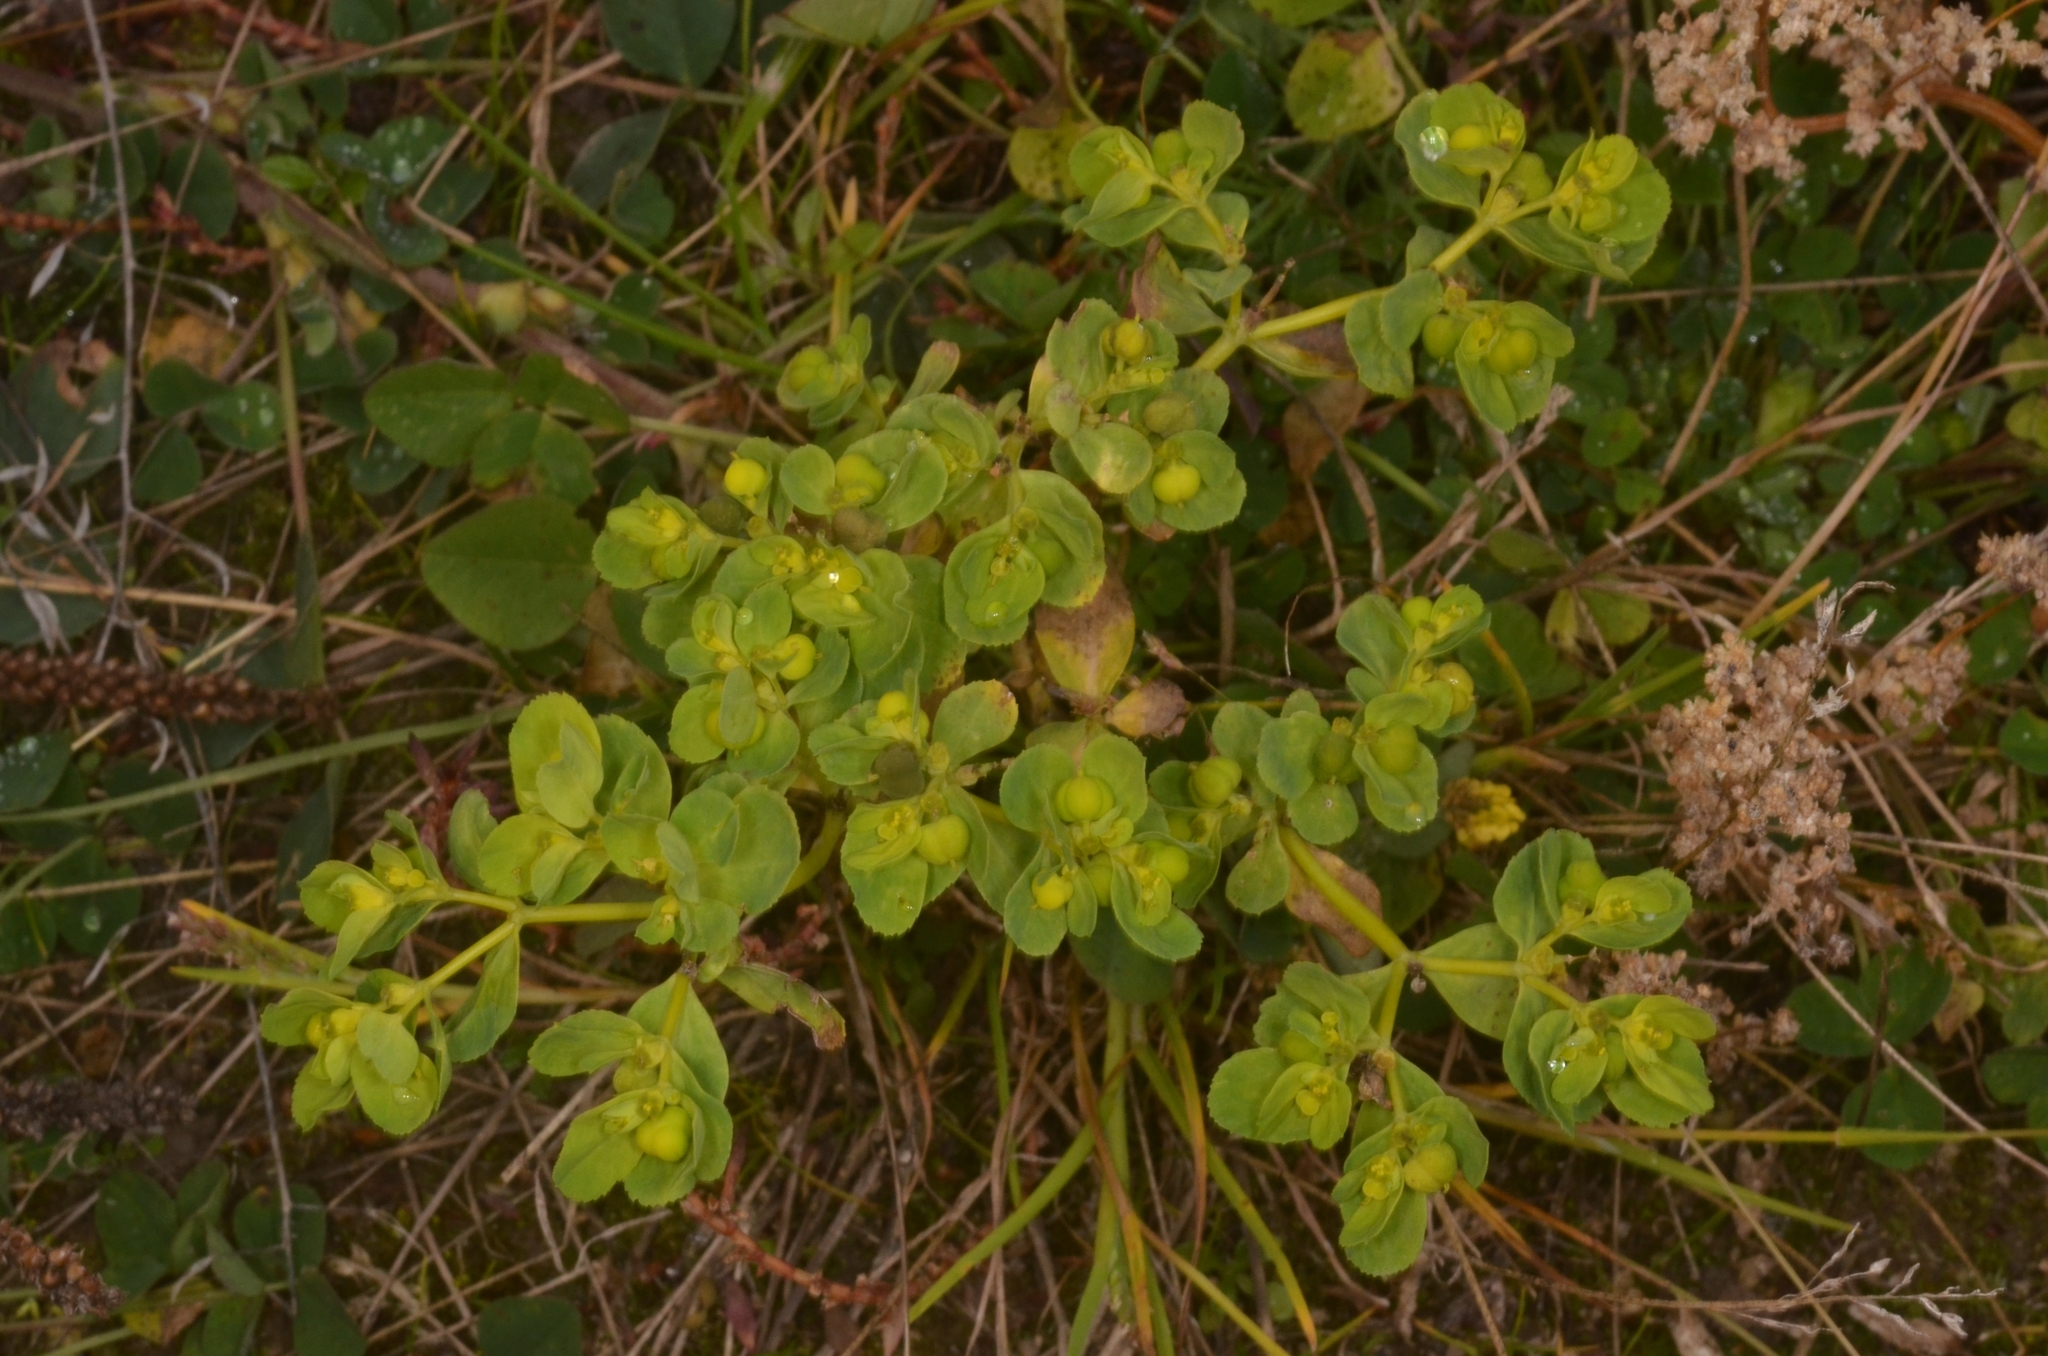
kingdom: Plantae
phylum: Tracheophyta
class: Magnoliopsida
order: Malpighiales
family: Euphorbiaceae
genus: Euphorbia
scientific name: Euphorbia helioscopia
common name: Sun spurge
